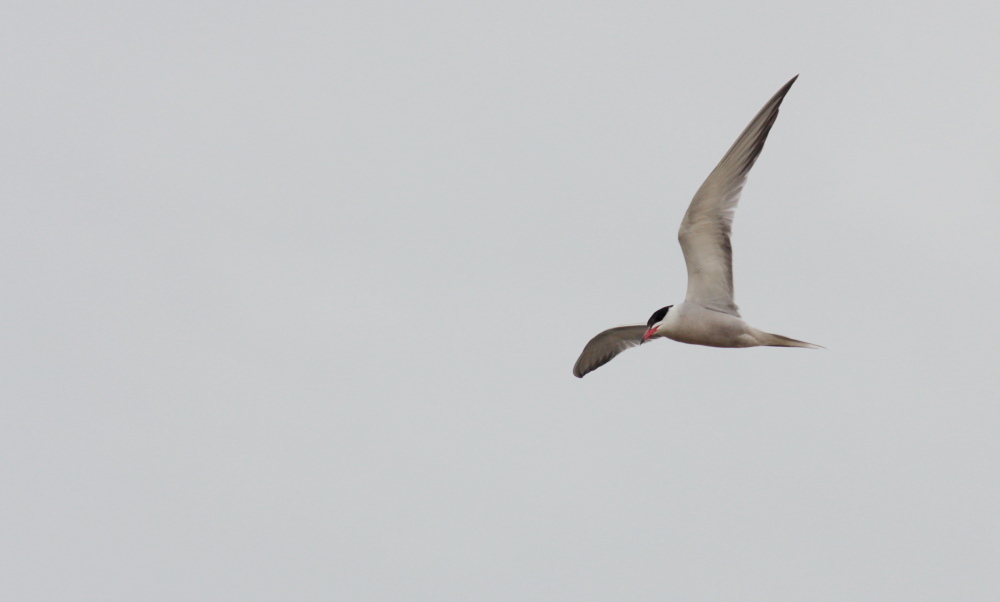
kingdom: Animalia
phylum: Chordata
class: Aves
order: Charadriiformes
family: Laridae
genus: Sterna
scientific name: Sterna hirundo
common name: Common tern
